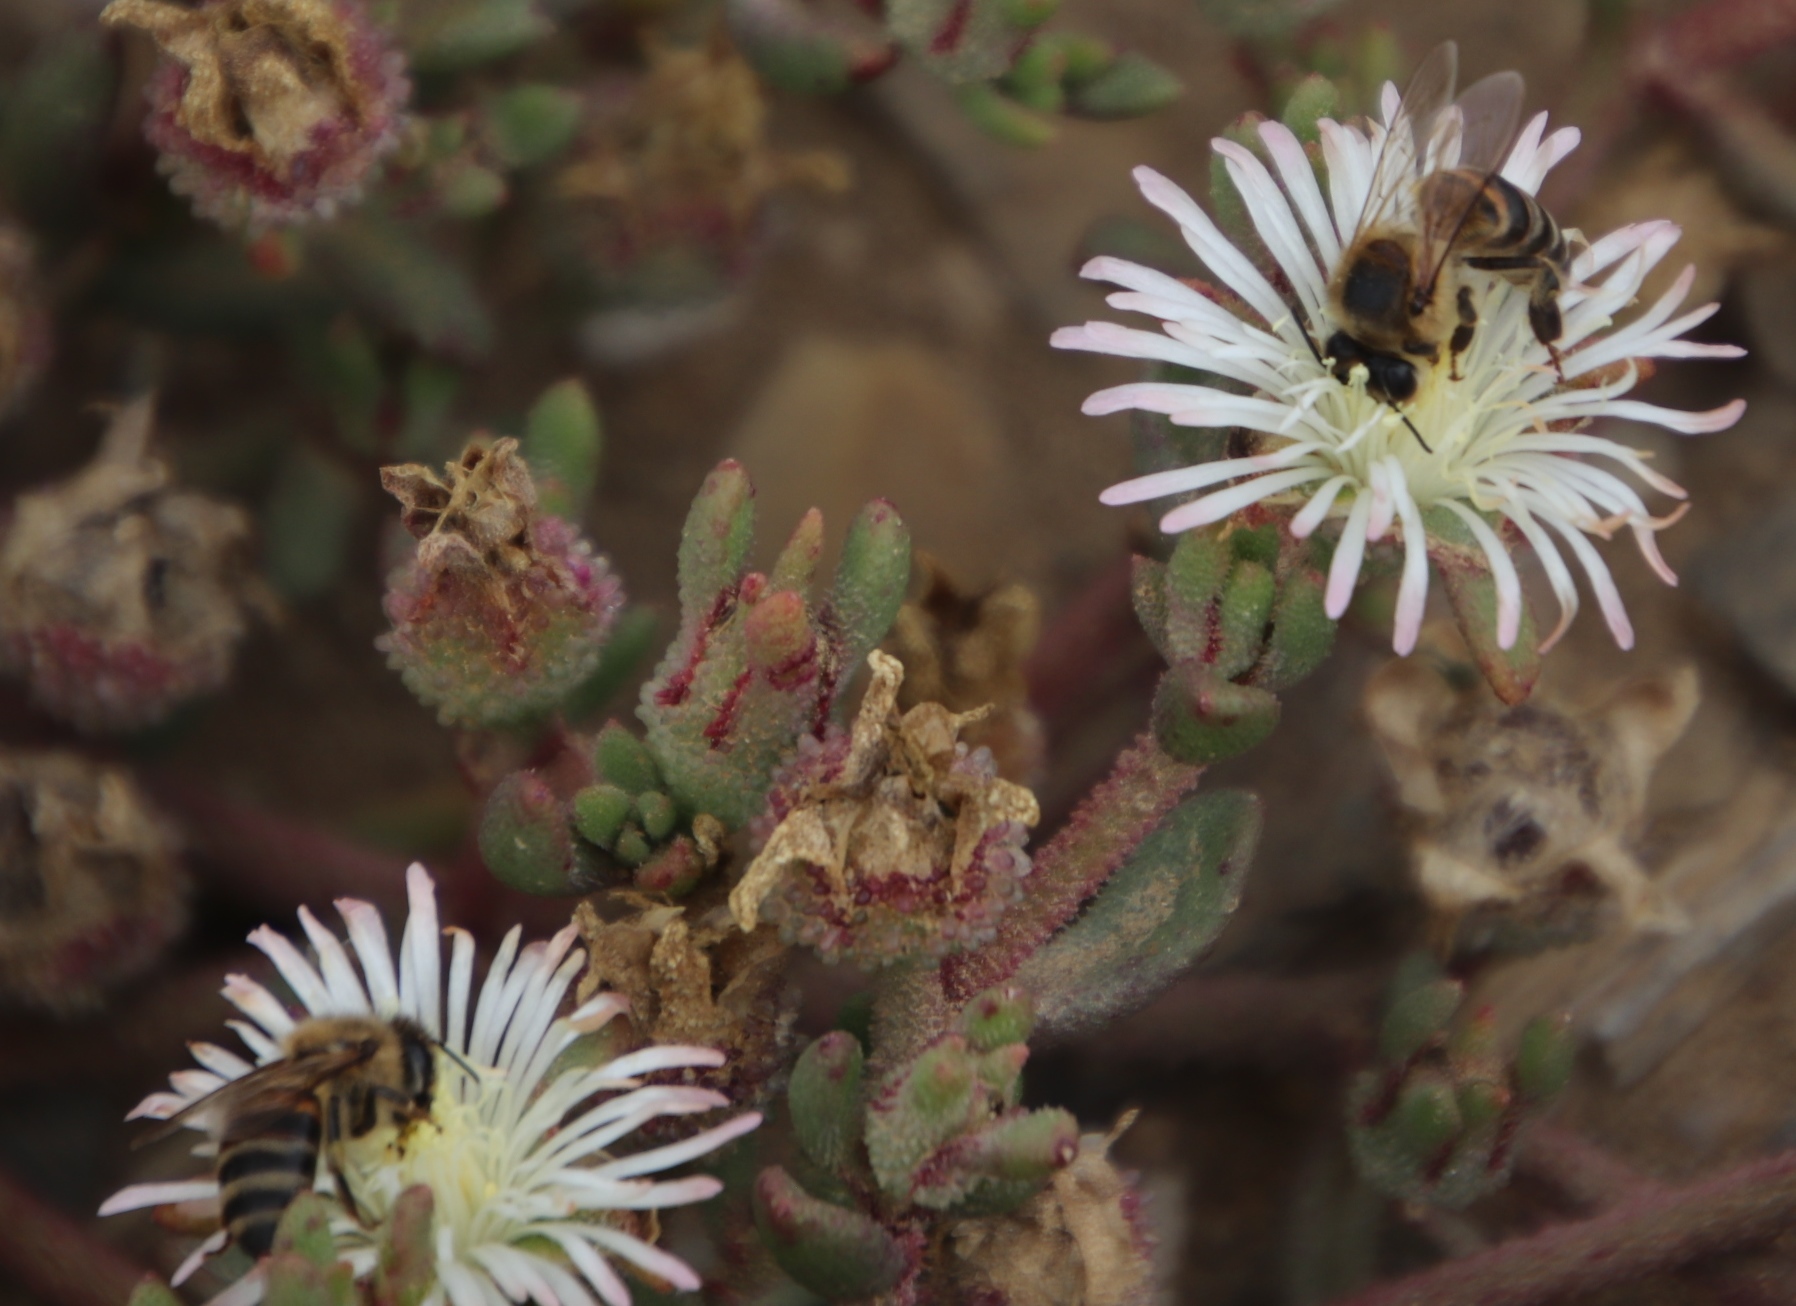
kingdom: Plantae
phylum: Tracheophyta
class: Magnoliopsida
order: Caryophyllales
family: Aizoaceae
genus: Mesembryanthemum
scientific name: Mesembryanthemum paulum
